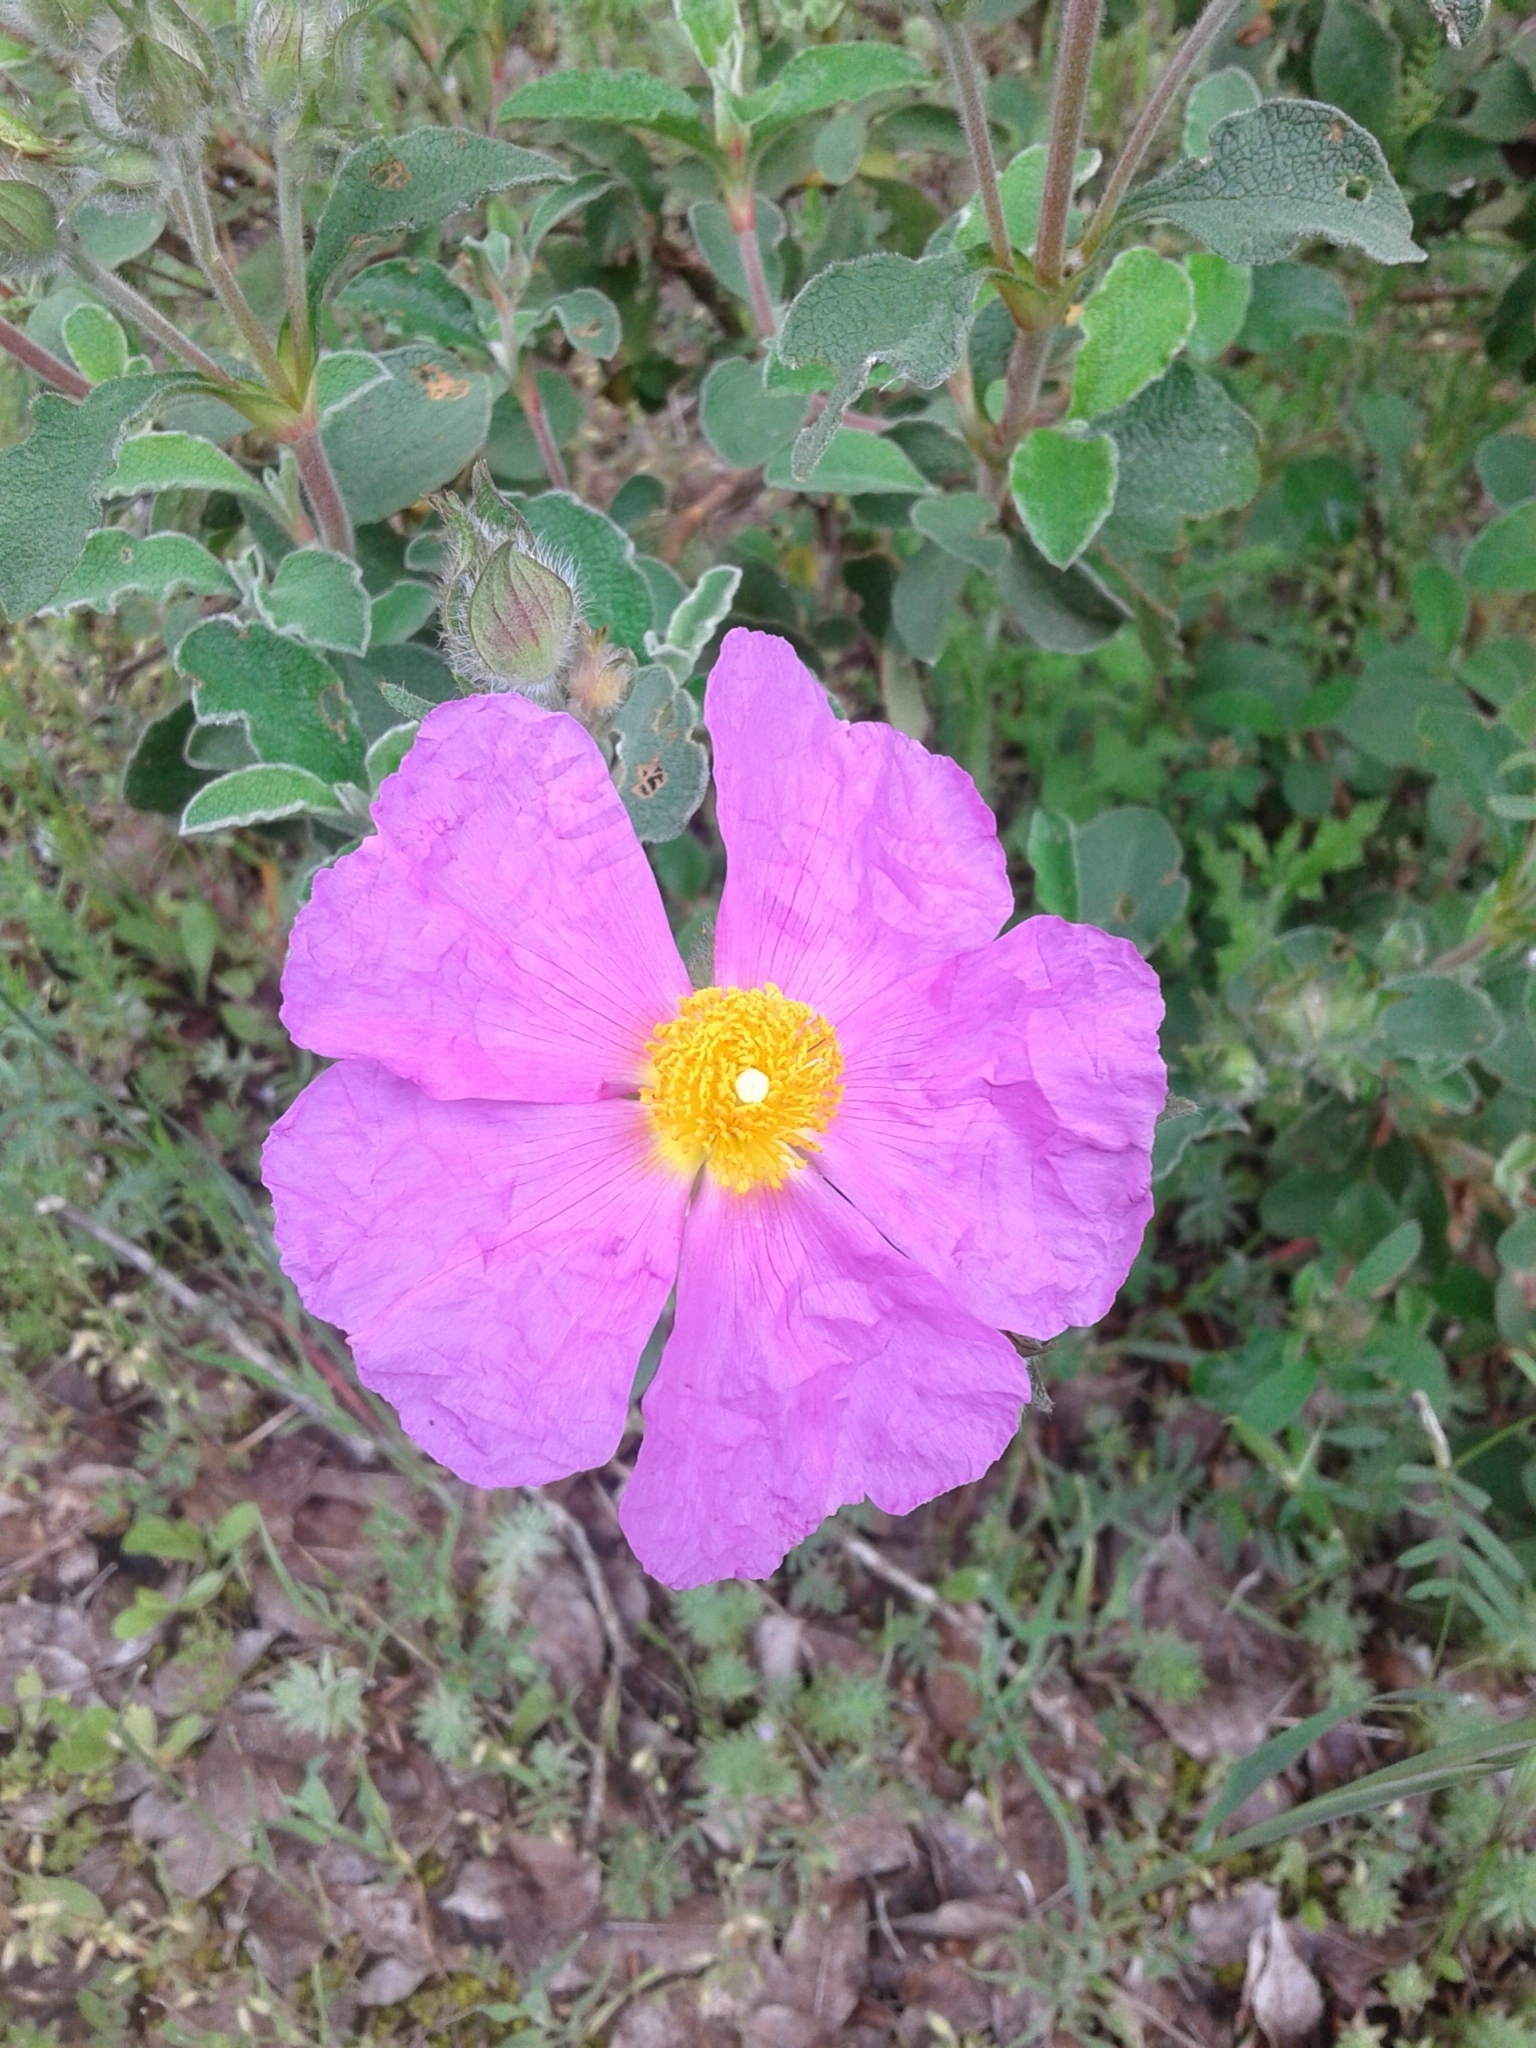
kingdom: Plantae
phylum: Tracheophyta
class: Magnoliopsida
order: Malvales
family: Cistaceae
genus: Cistus
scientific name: Cistus tauricus
